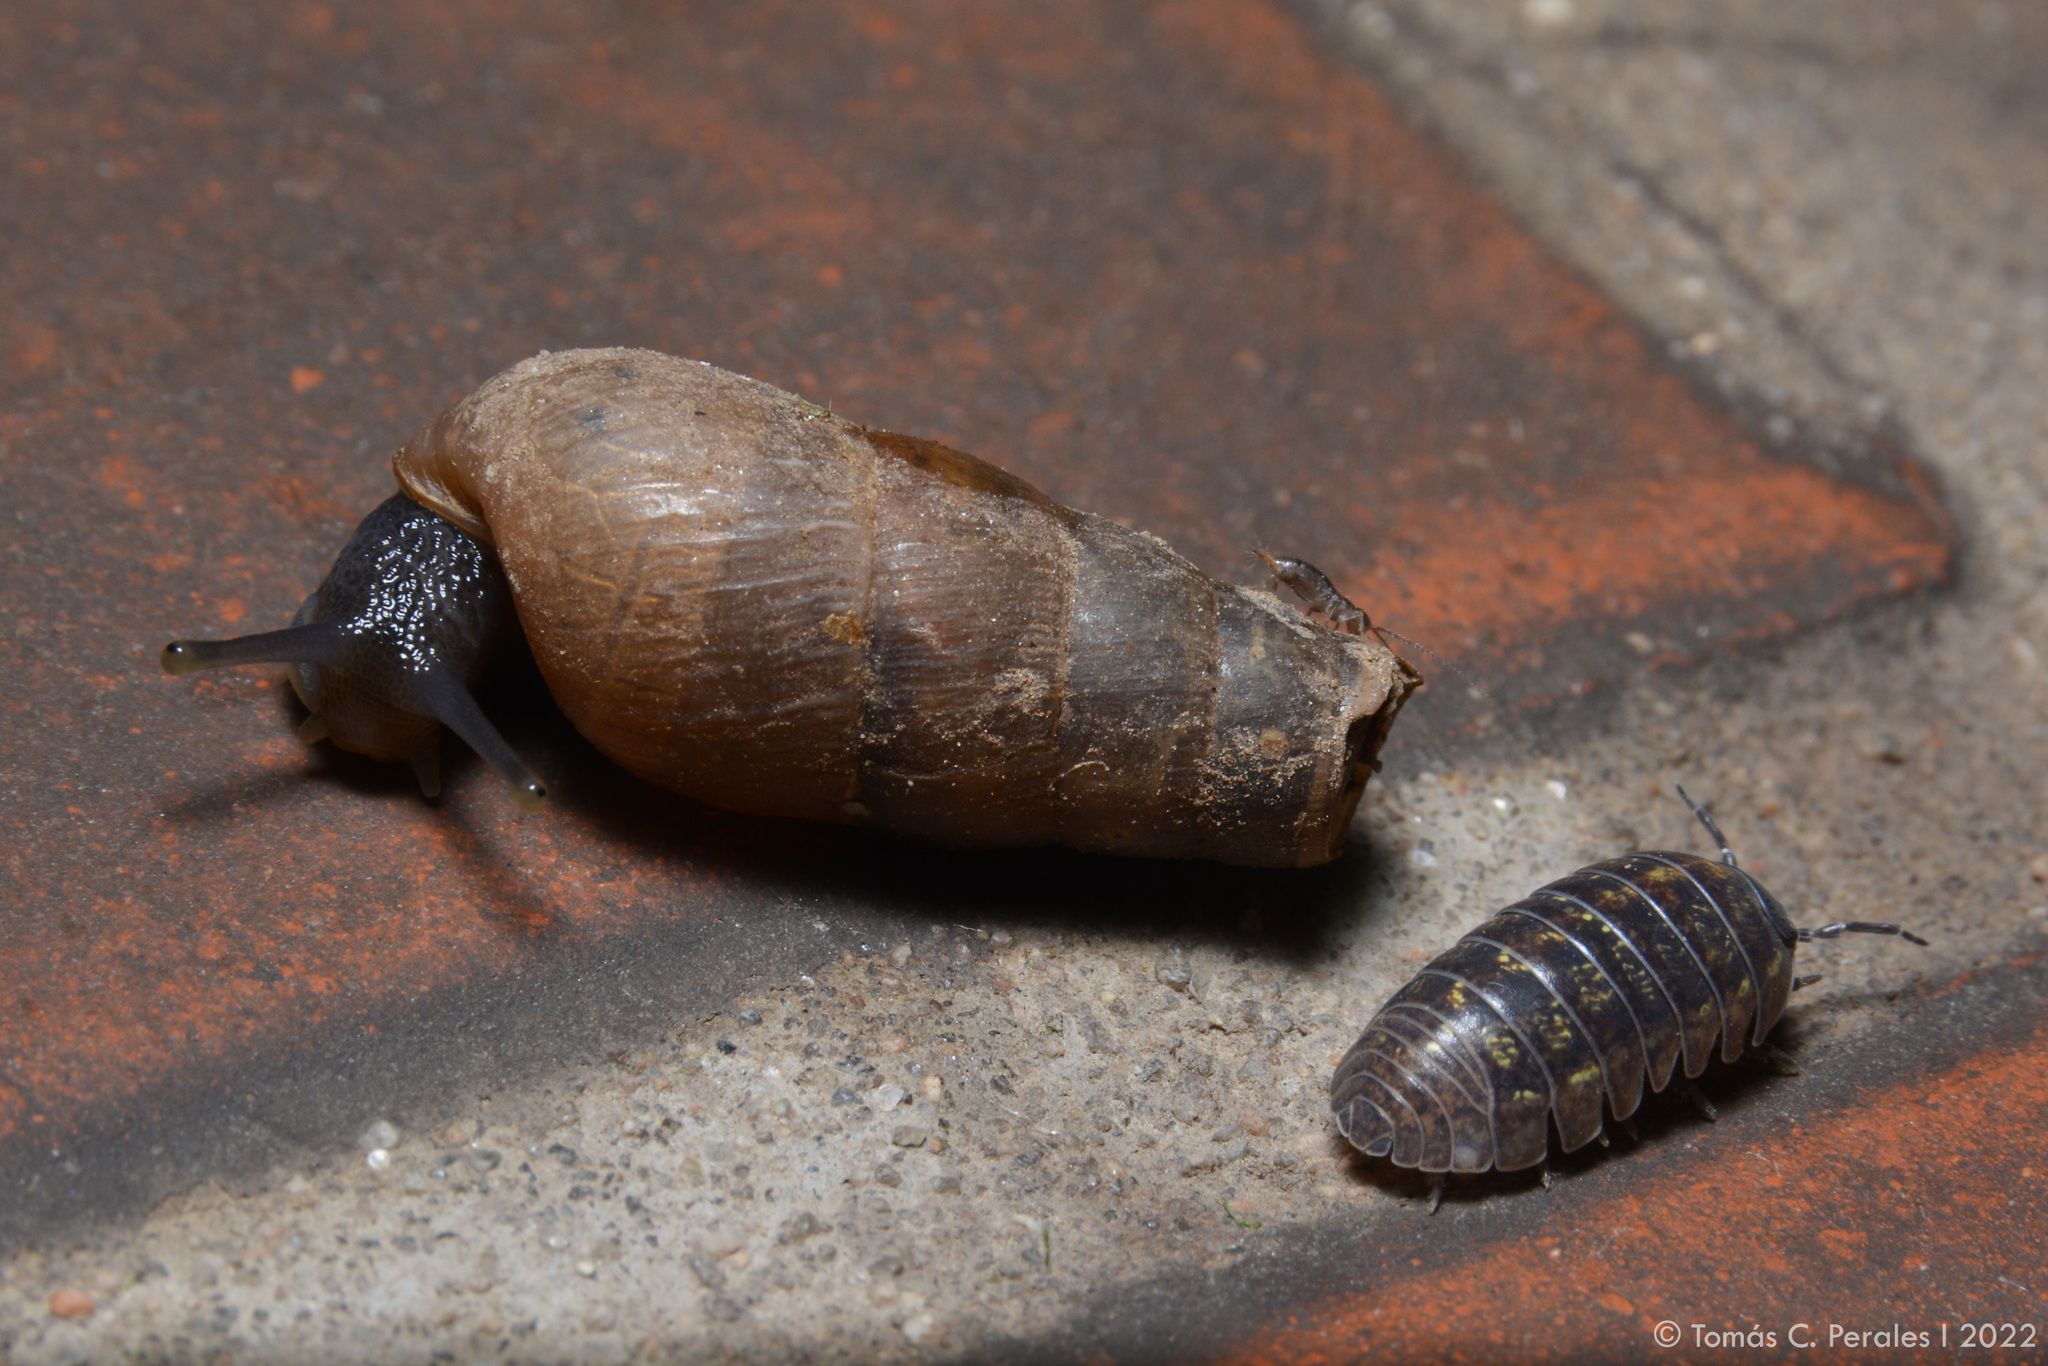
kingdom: Animalia
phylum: Arthropoda
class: Malacostraca
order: Isopoda
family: Armadillidiidae
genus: Armadillidium
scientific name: Armadillidium vulgare
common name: Common pill woodlouse
